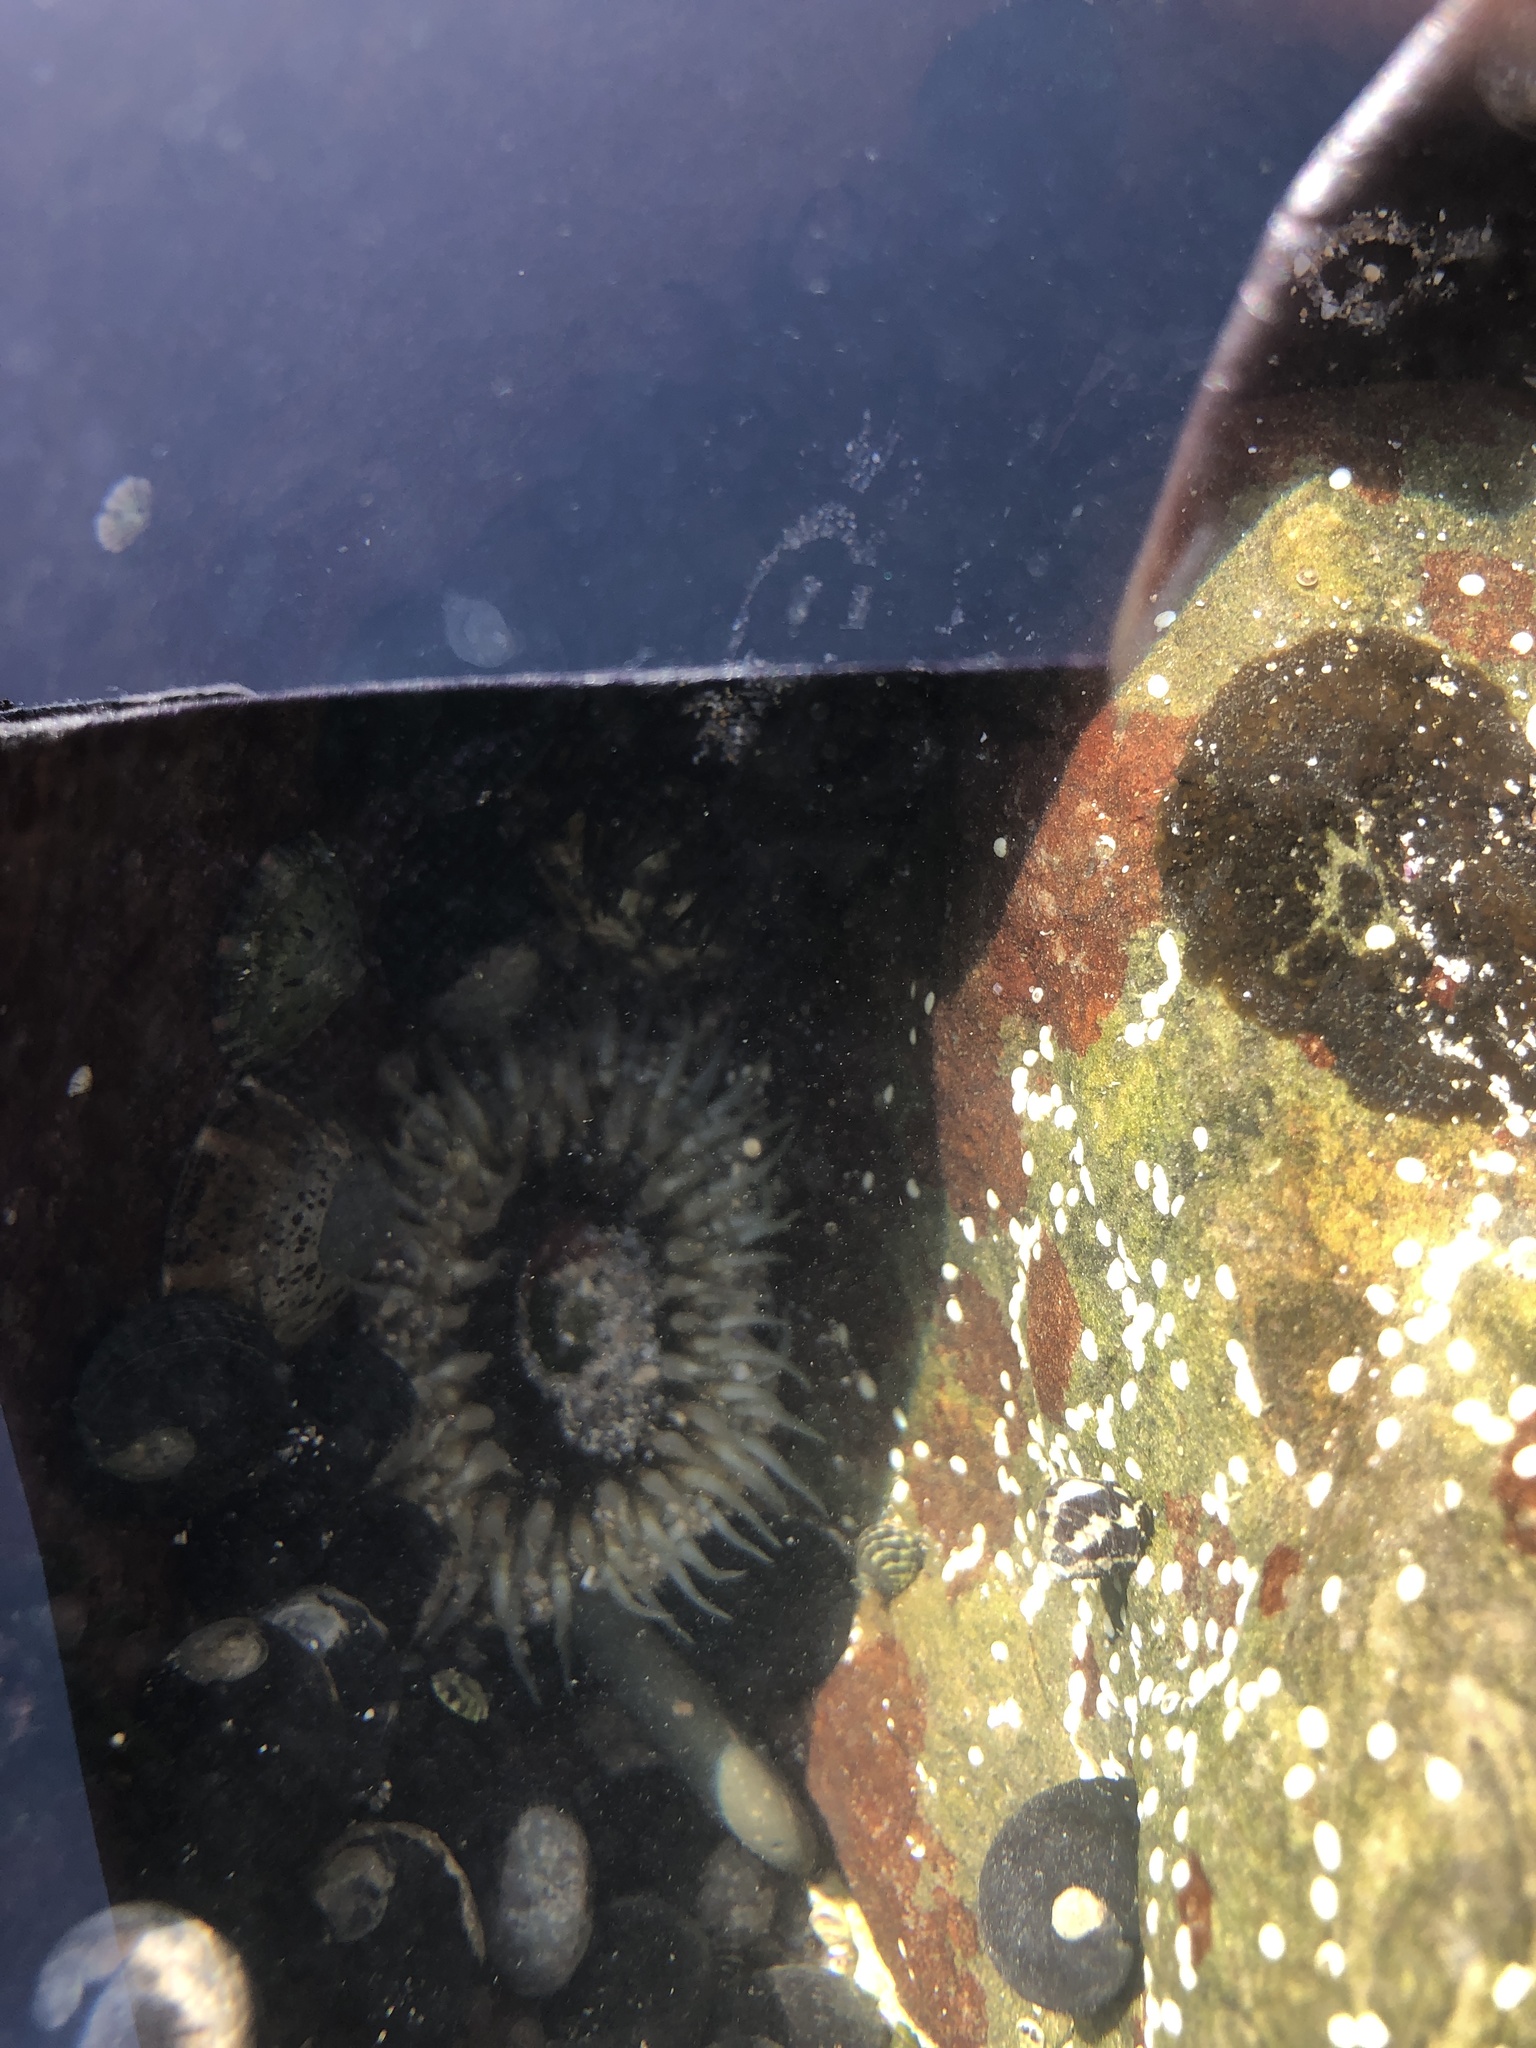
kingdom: Animalia
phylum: Cnidaria
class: Anthozoa
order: Actiniaria
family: Actiniidae
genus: Oulactis
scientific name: Oulactis muscosa
